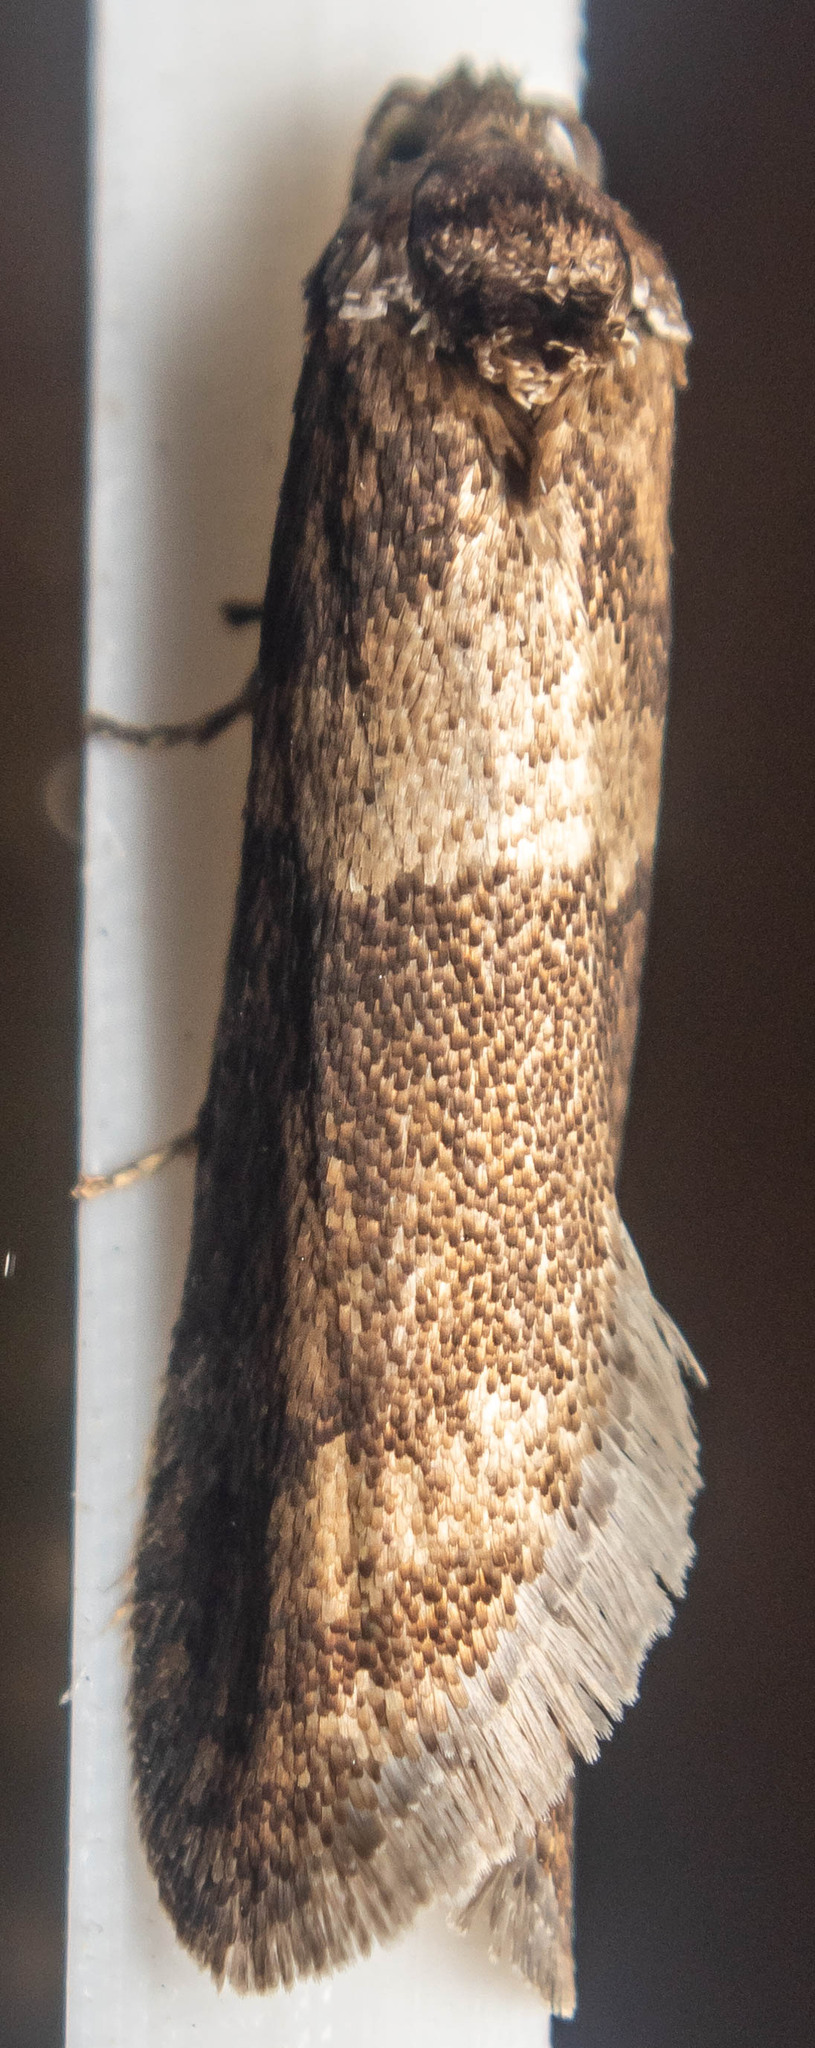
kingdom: Animalia
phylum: Arthropoda
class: Insecta
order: Lepidoptera
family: Tortricidae
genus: Tortricodes
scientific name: Tortricodes alternella
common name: Winter shade
